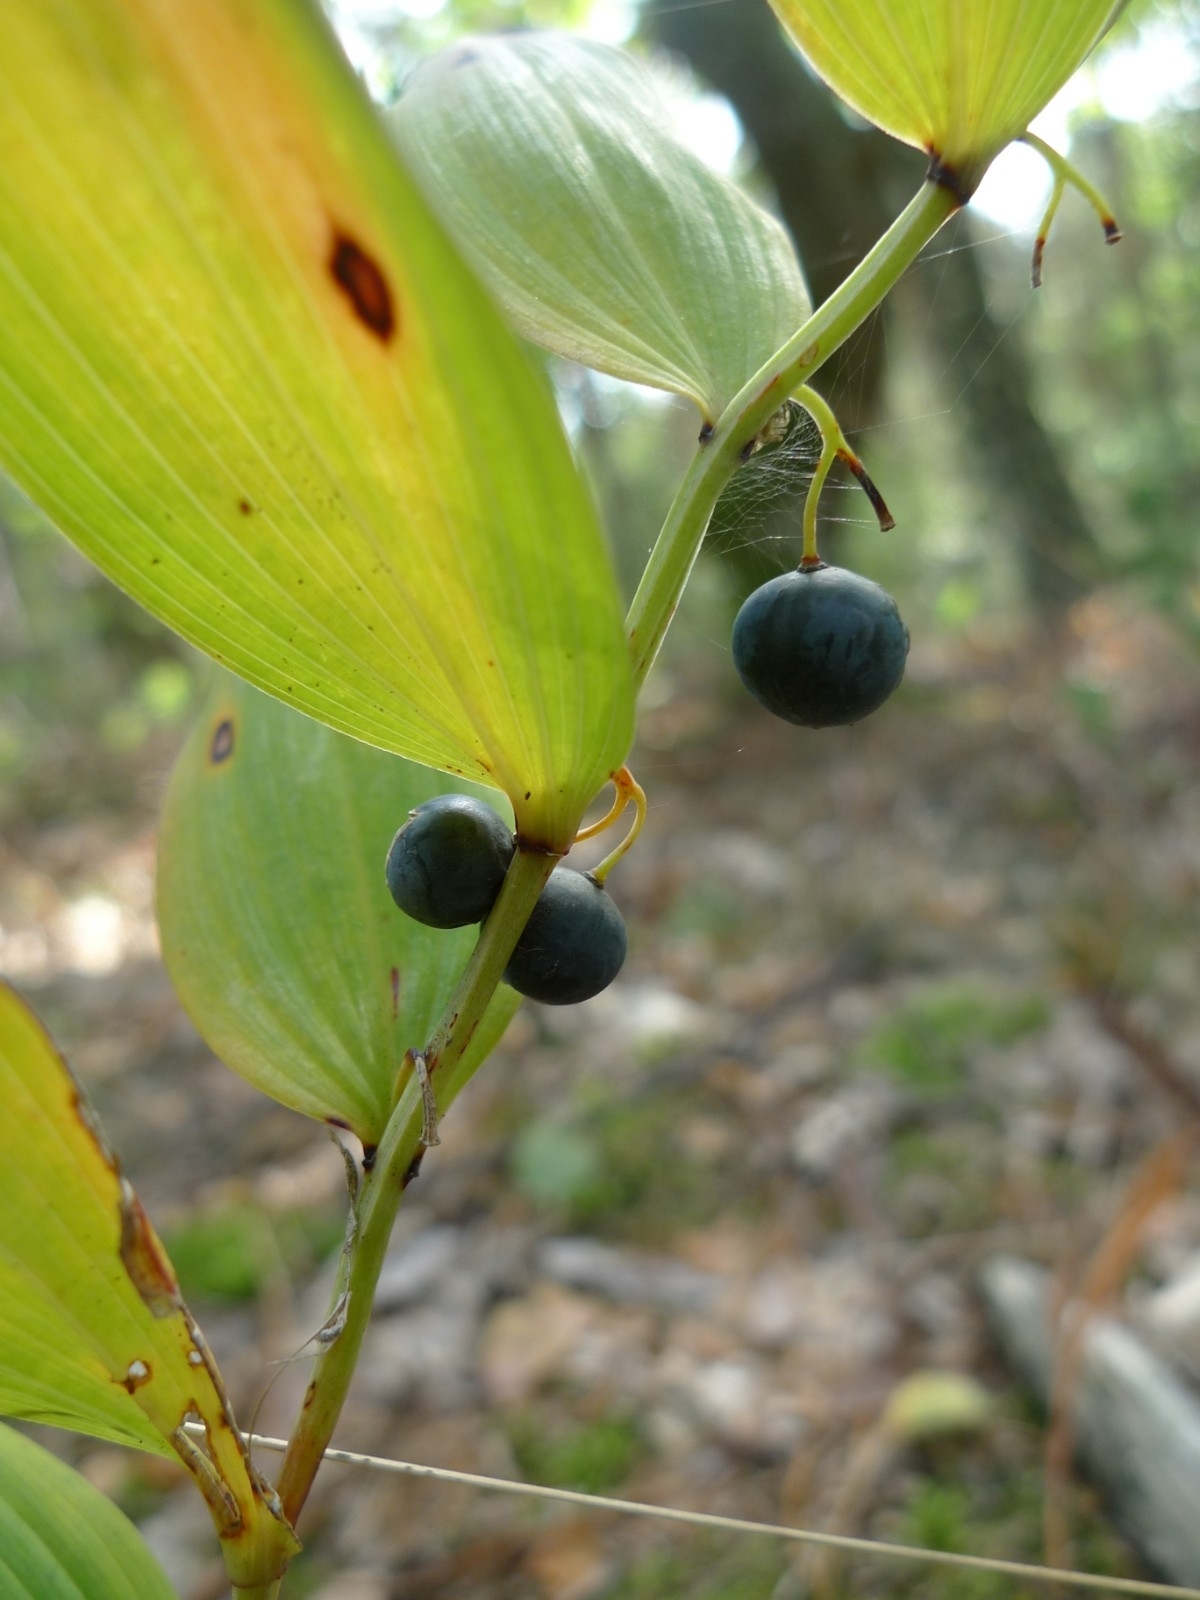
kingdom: Plantae
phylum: Tracheophyta
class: Liliopsida
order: Asparagales
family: Asparagaceae
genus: Polygonatum
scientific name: Polygonatum multiflorum
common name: Solomon's-seal
